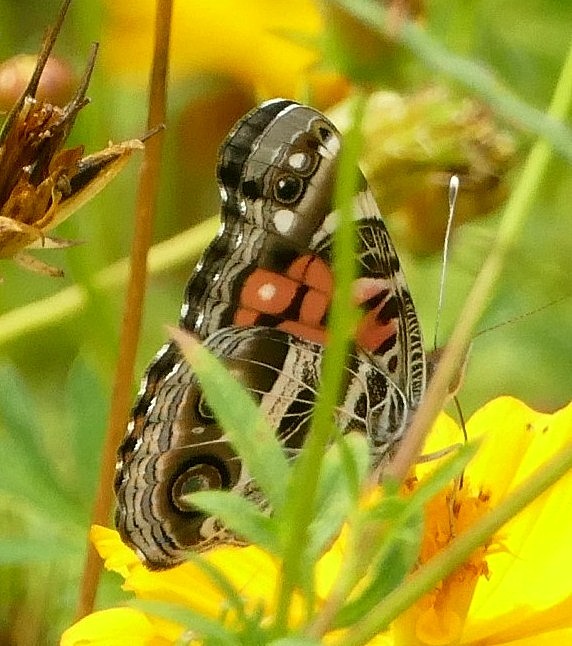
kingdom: Animalia
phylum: Arthropoda
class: Insecta
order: Lepidoptera
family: Nymphalidae
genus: Vanessa
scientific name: Vanessa virginiensis
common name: American lady
